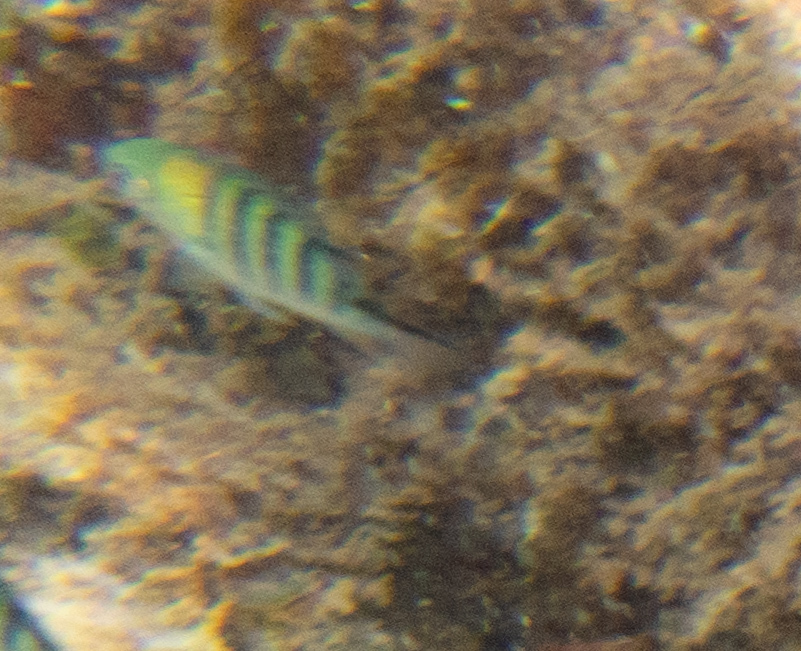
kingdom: Animalia
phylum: Chordata
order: Perciformes
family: Pomacentridae
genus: Abudefduf
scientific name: Abudefduf whitleyi
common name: Whitley's seargent
